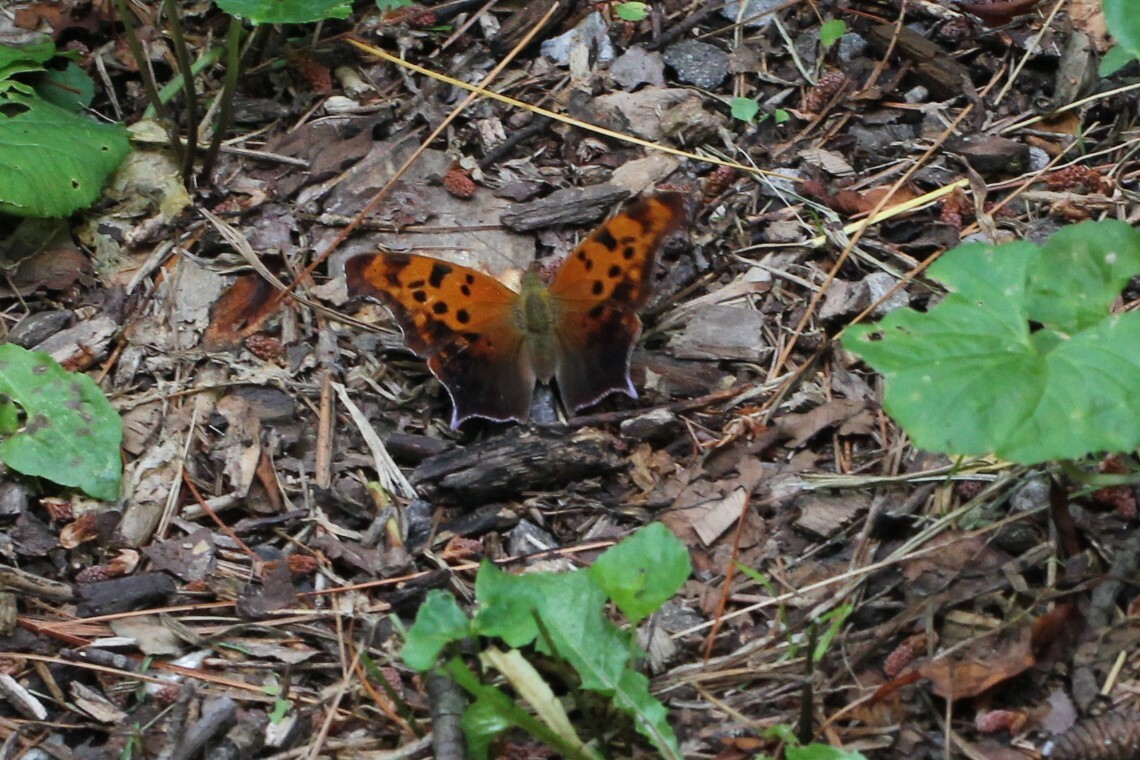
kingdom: Animalia
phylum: Arthropoda
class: Insecta
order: Lepidoptera
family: Nymphalidae
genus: Polygonia
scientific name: Polygonia interrogationis
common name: Question mark
